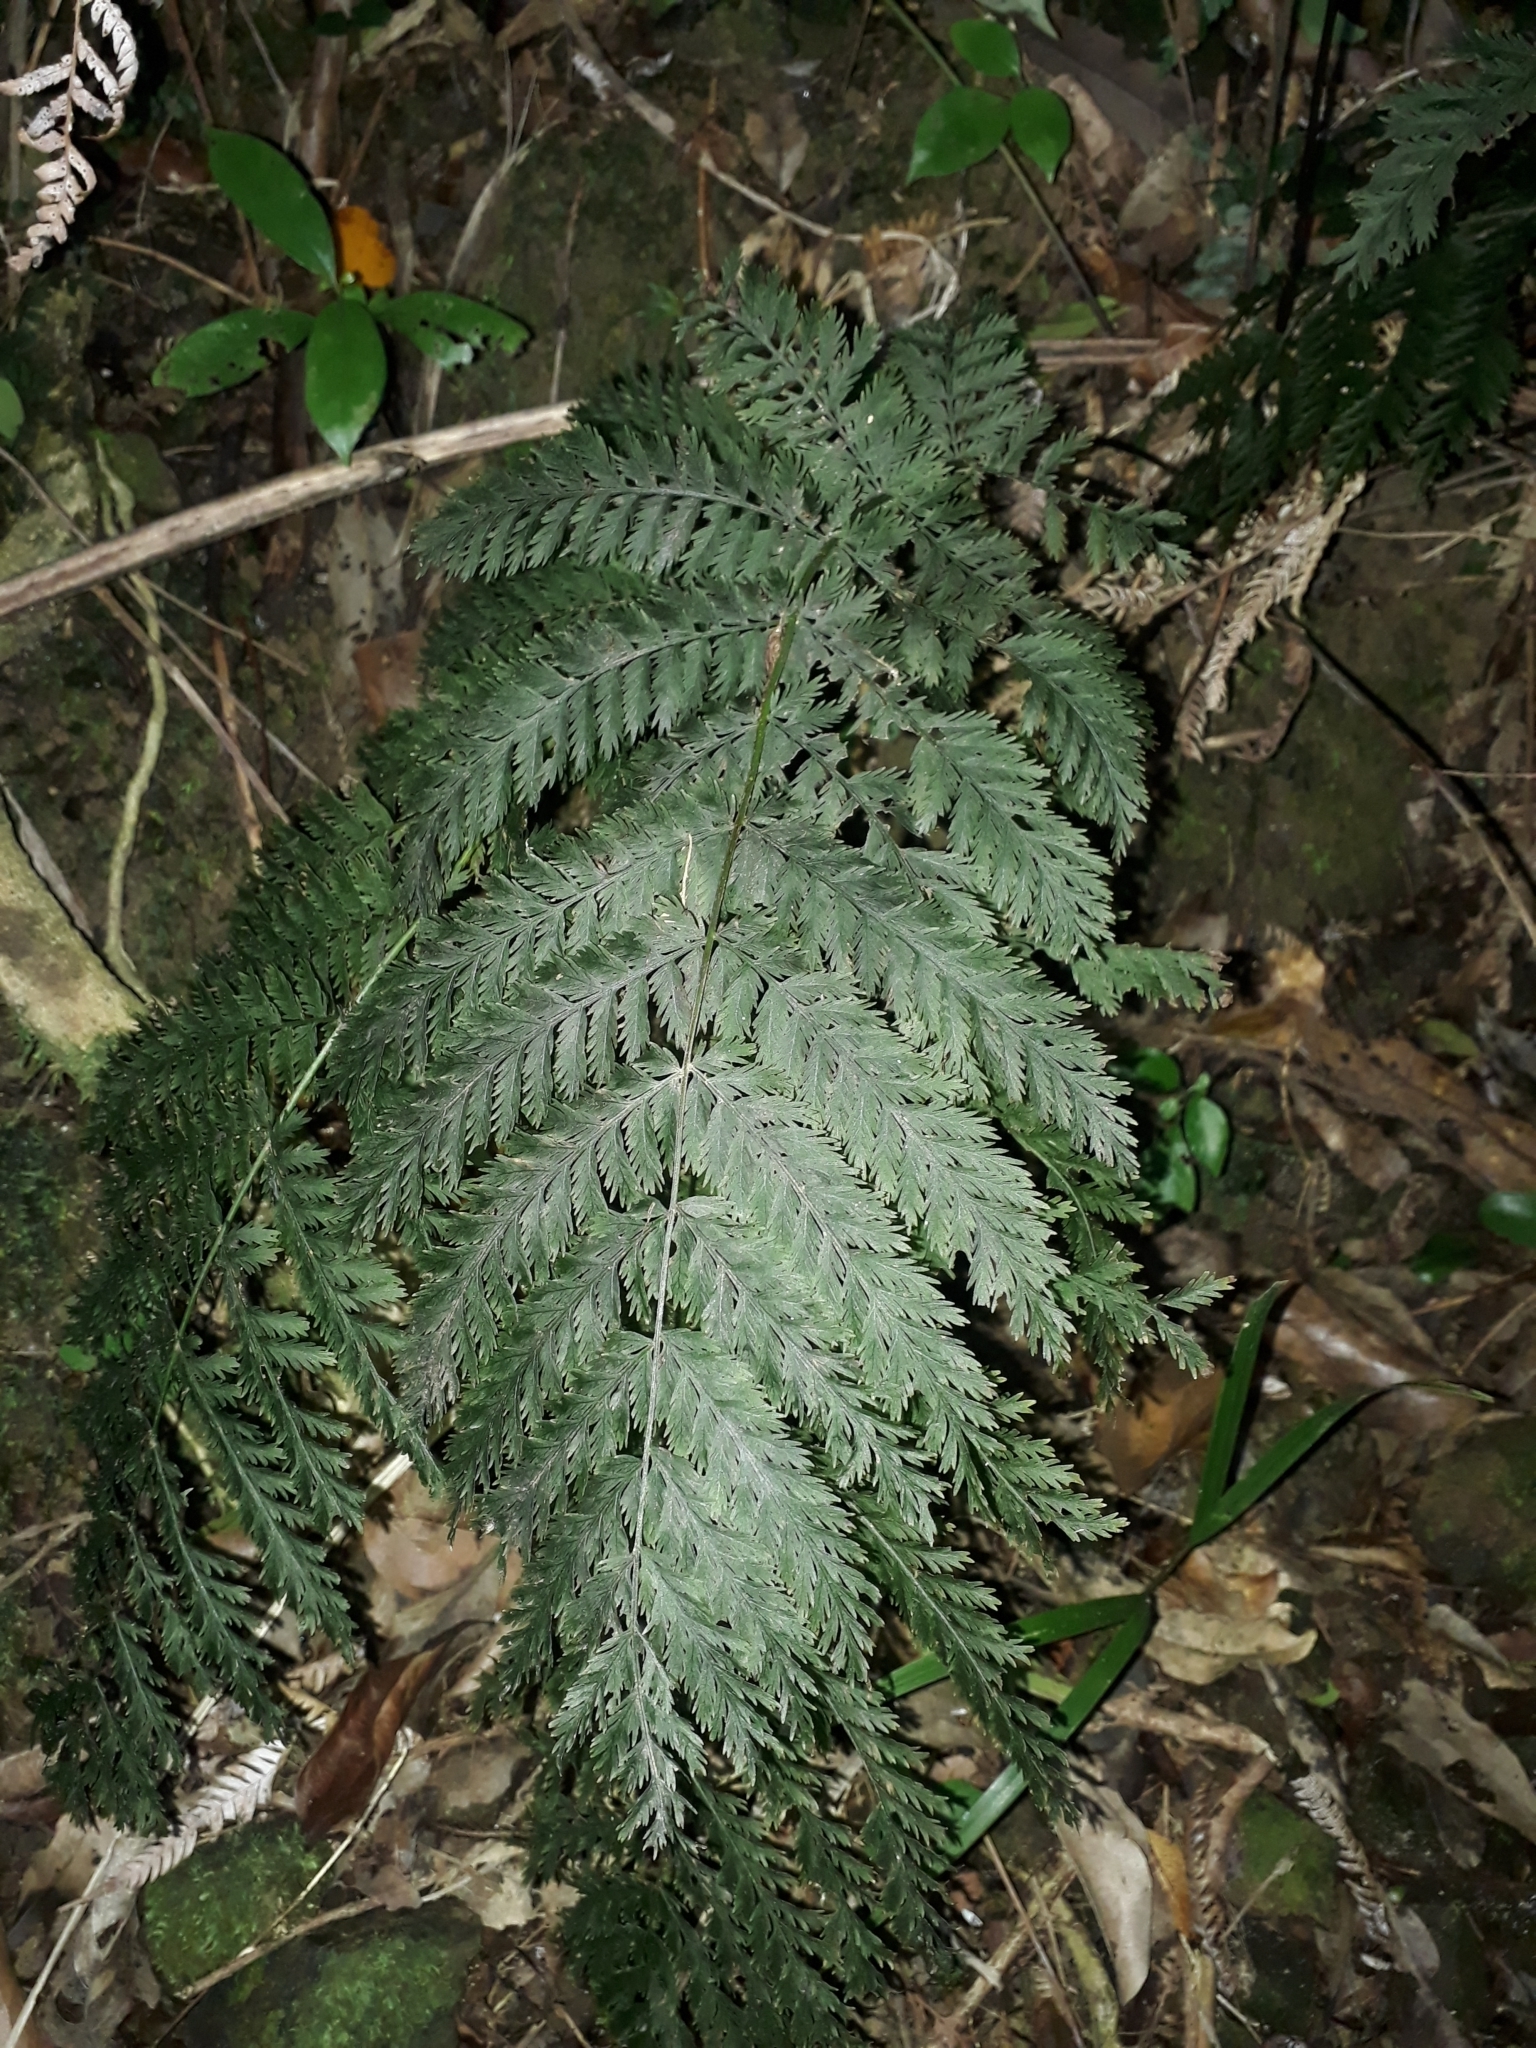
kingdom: Plantae
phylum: Tracheophyta
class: Polypodiopsida
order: Osmundales
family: Osmundaceae
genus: Leptopteris
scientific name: Leptopteris hymenophylloides
